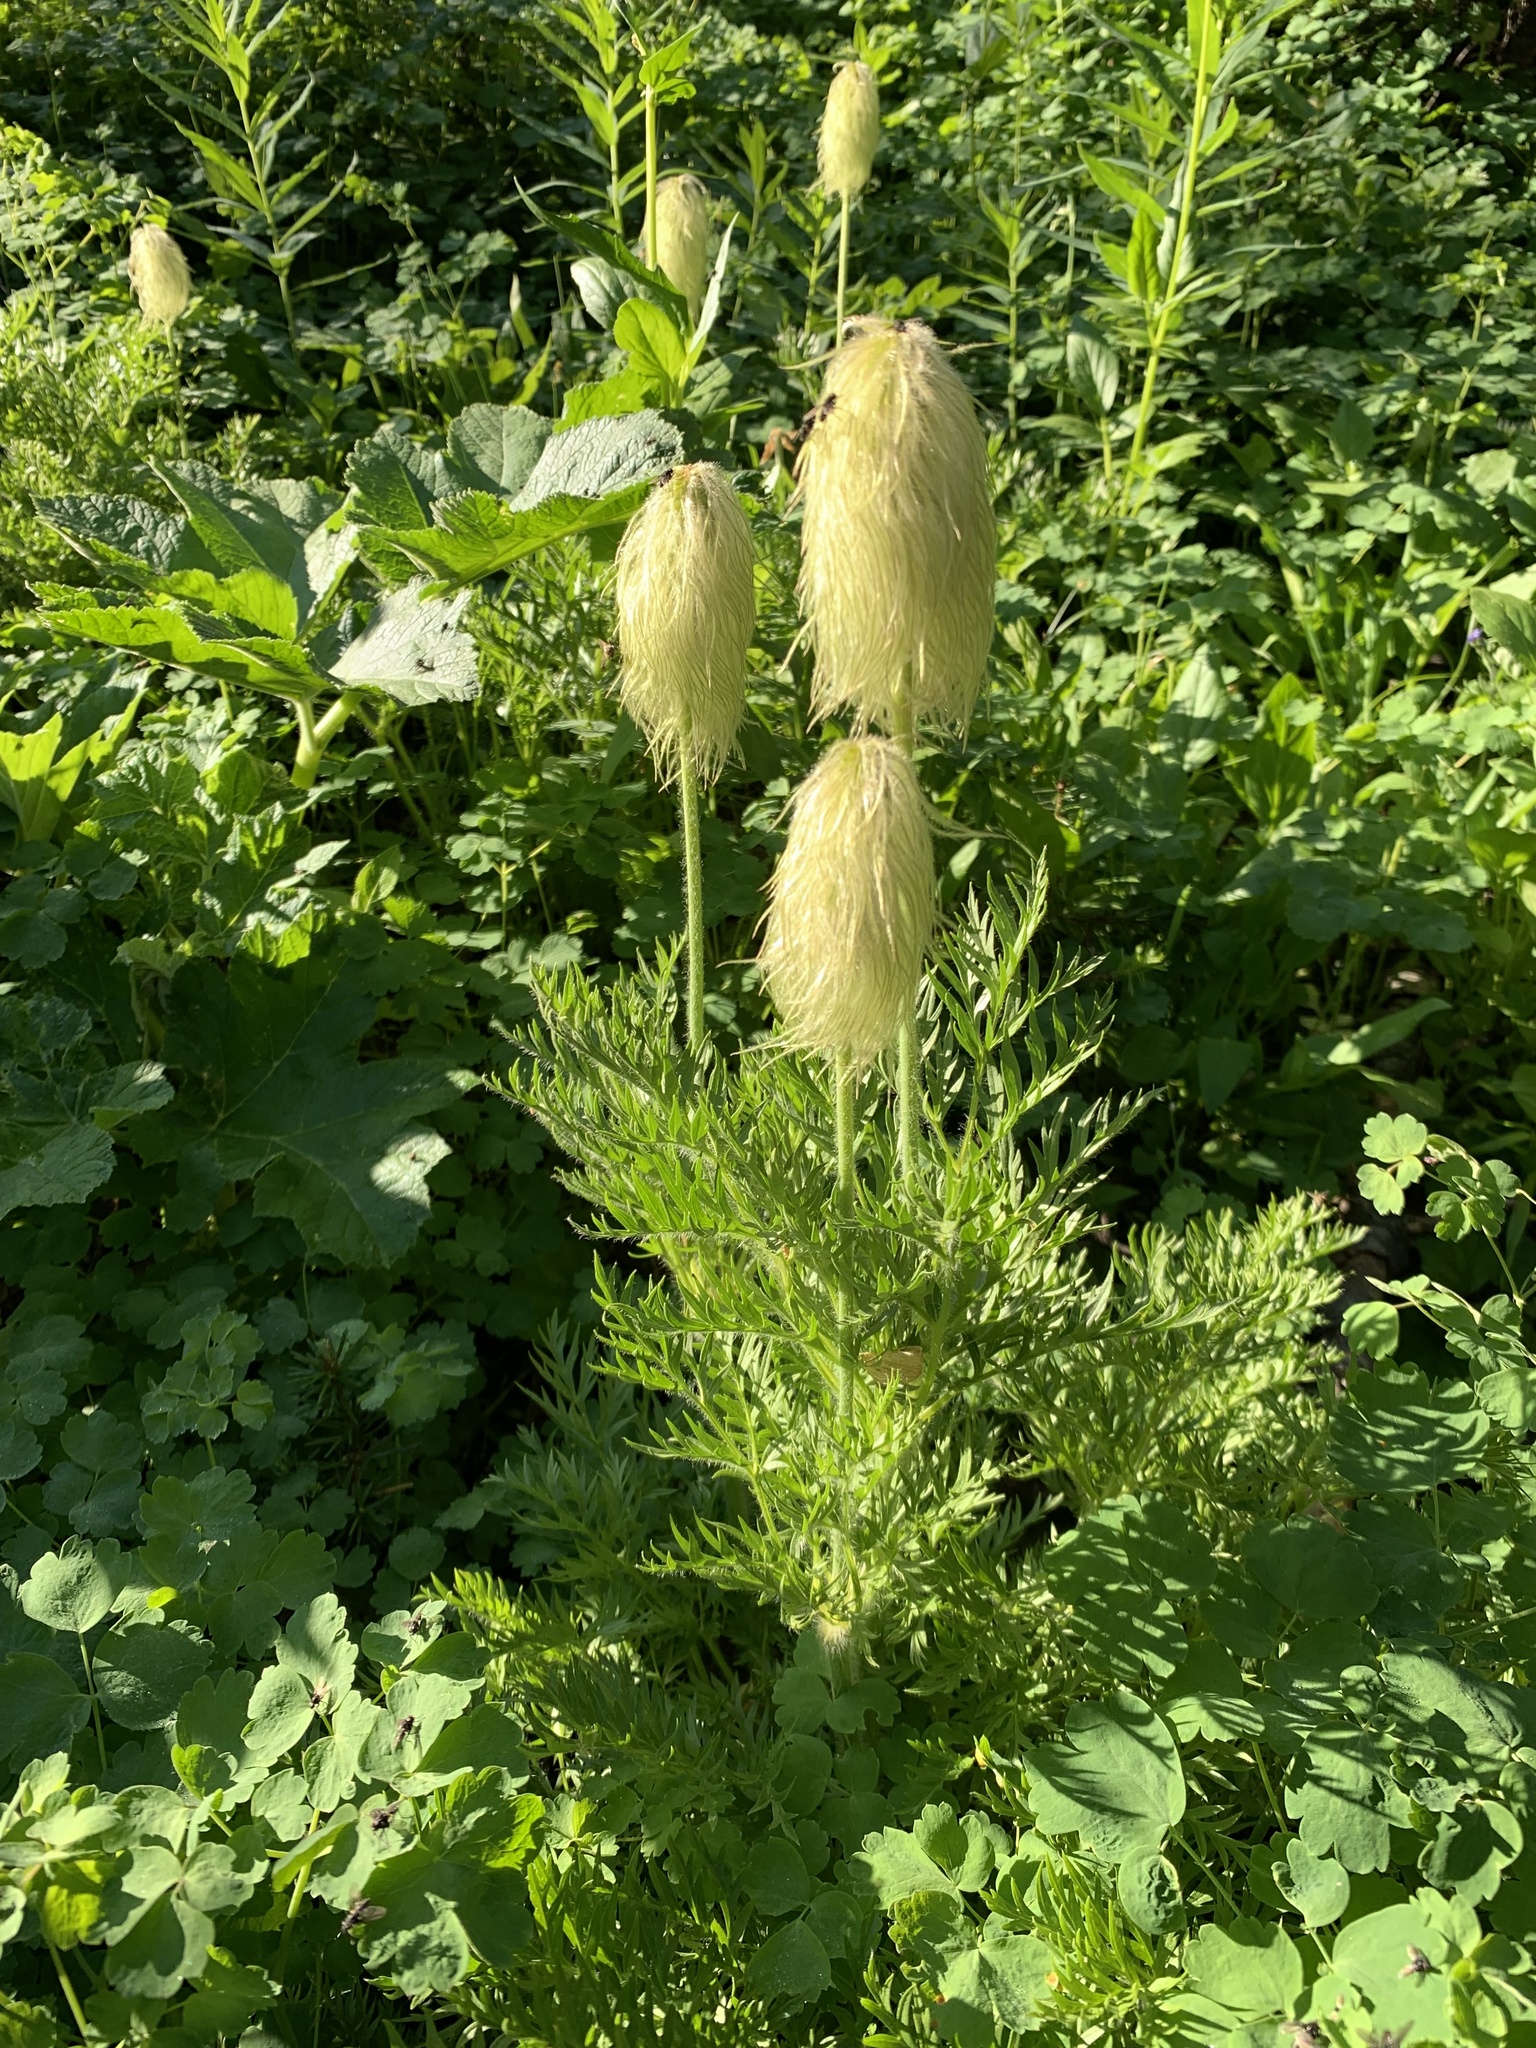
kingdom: Plantae
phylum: Tracheophyta
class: Magnoliopsida
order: Ranunculales
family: Ranunculaceae
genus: Pulsatilla
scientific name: Pulsatilla occidentalis
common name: Mountain pasqueflower
